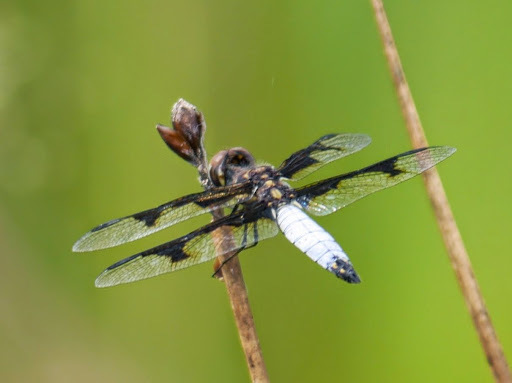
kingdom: Animalia
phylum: Arthropoda
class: Insecta
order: Odonata
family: Libellulidae
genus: Palpopleura
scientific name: Palpopleura albifrons
